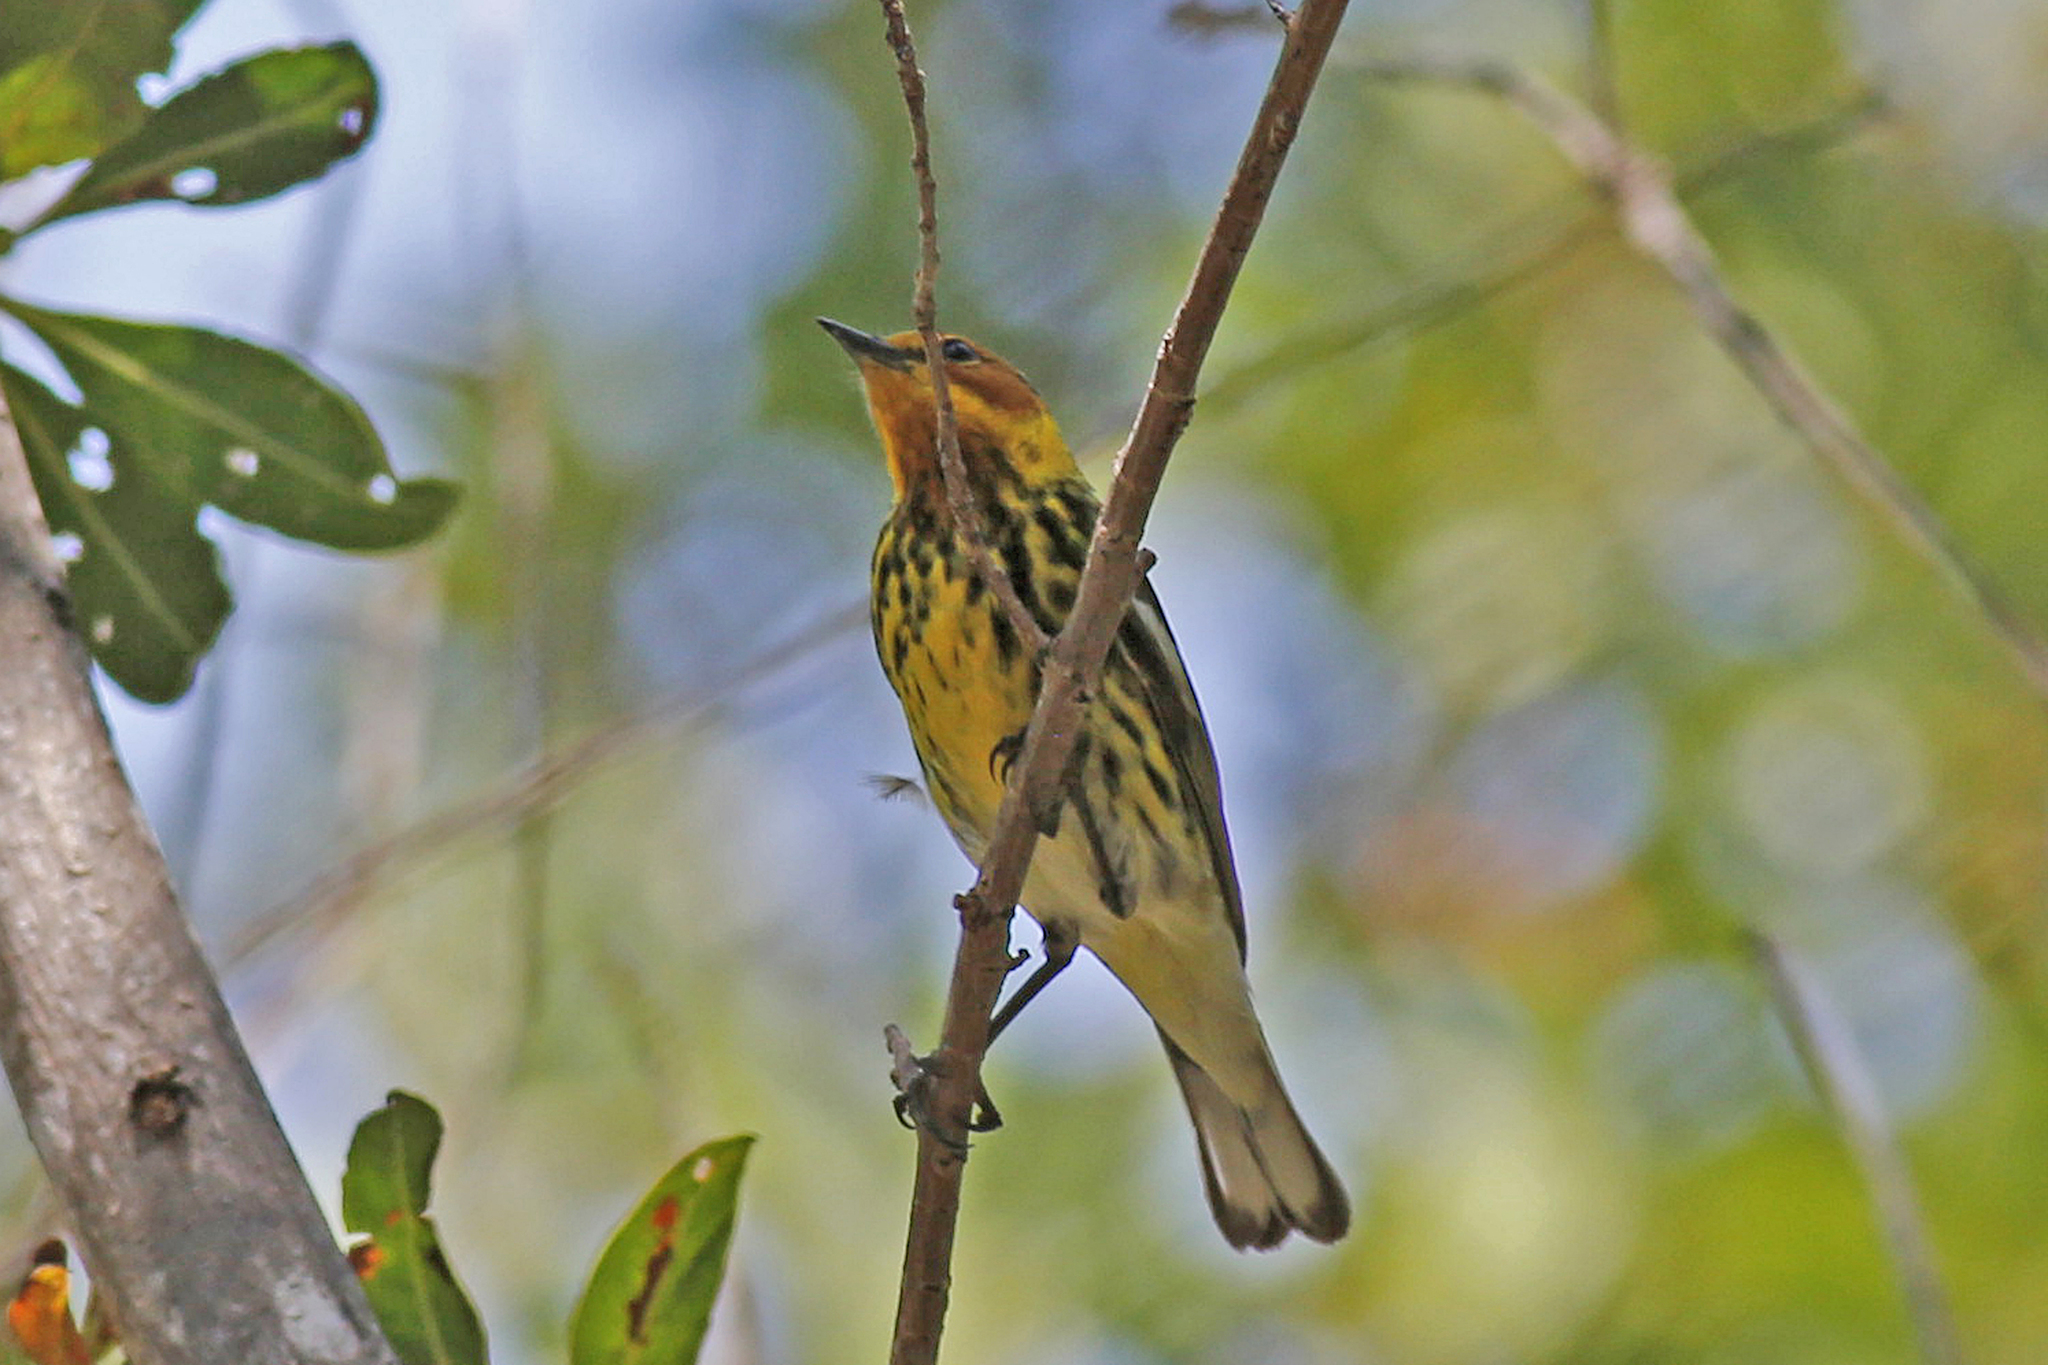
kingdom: Animalia
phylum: Chordata
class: Aves
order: Passeriformes
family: Parulidae
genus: Setophaga
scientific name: Setophaga tigrina
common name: Cape may warbler
